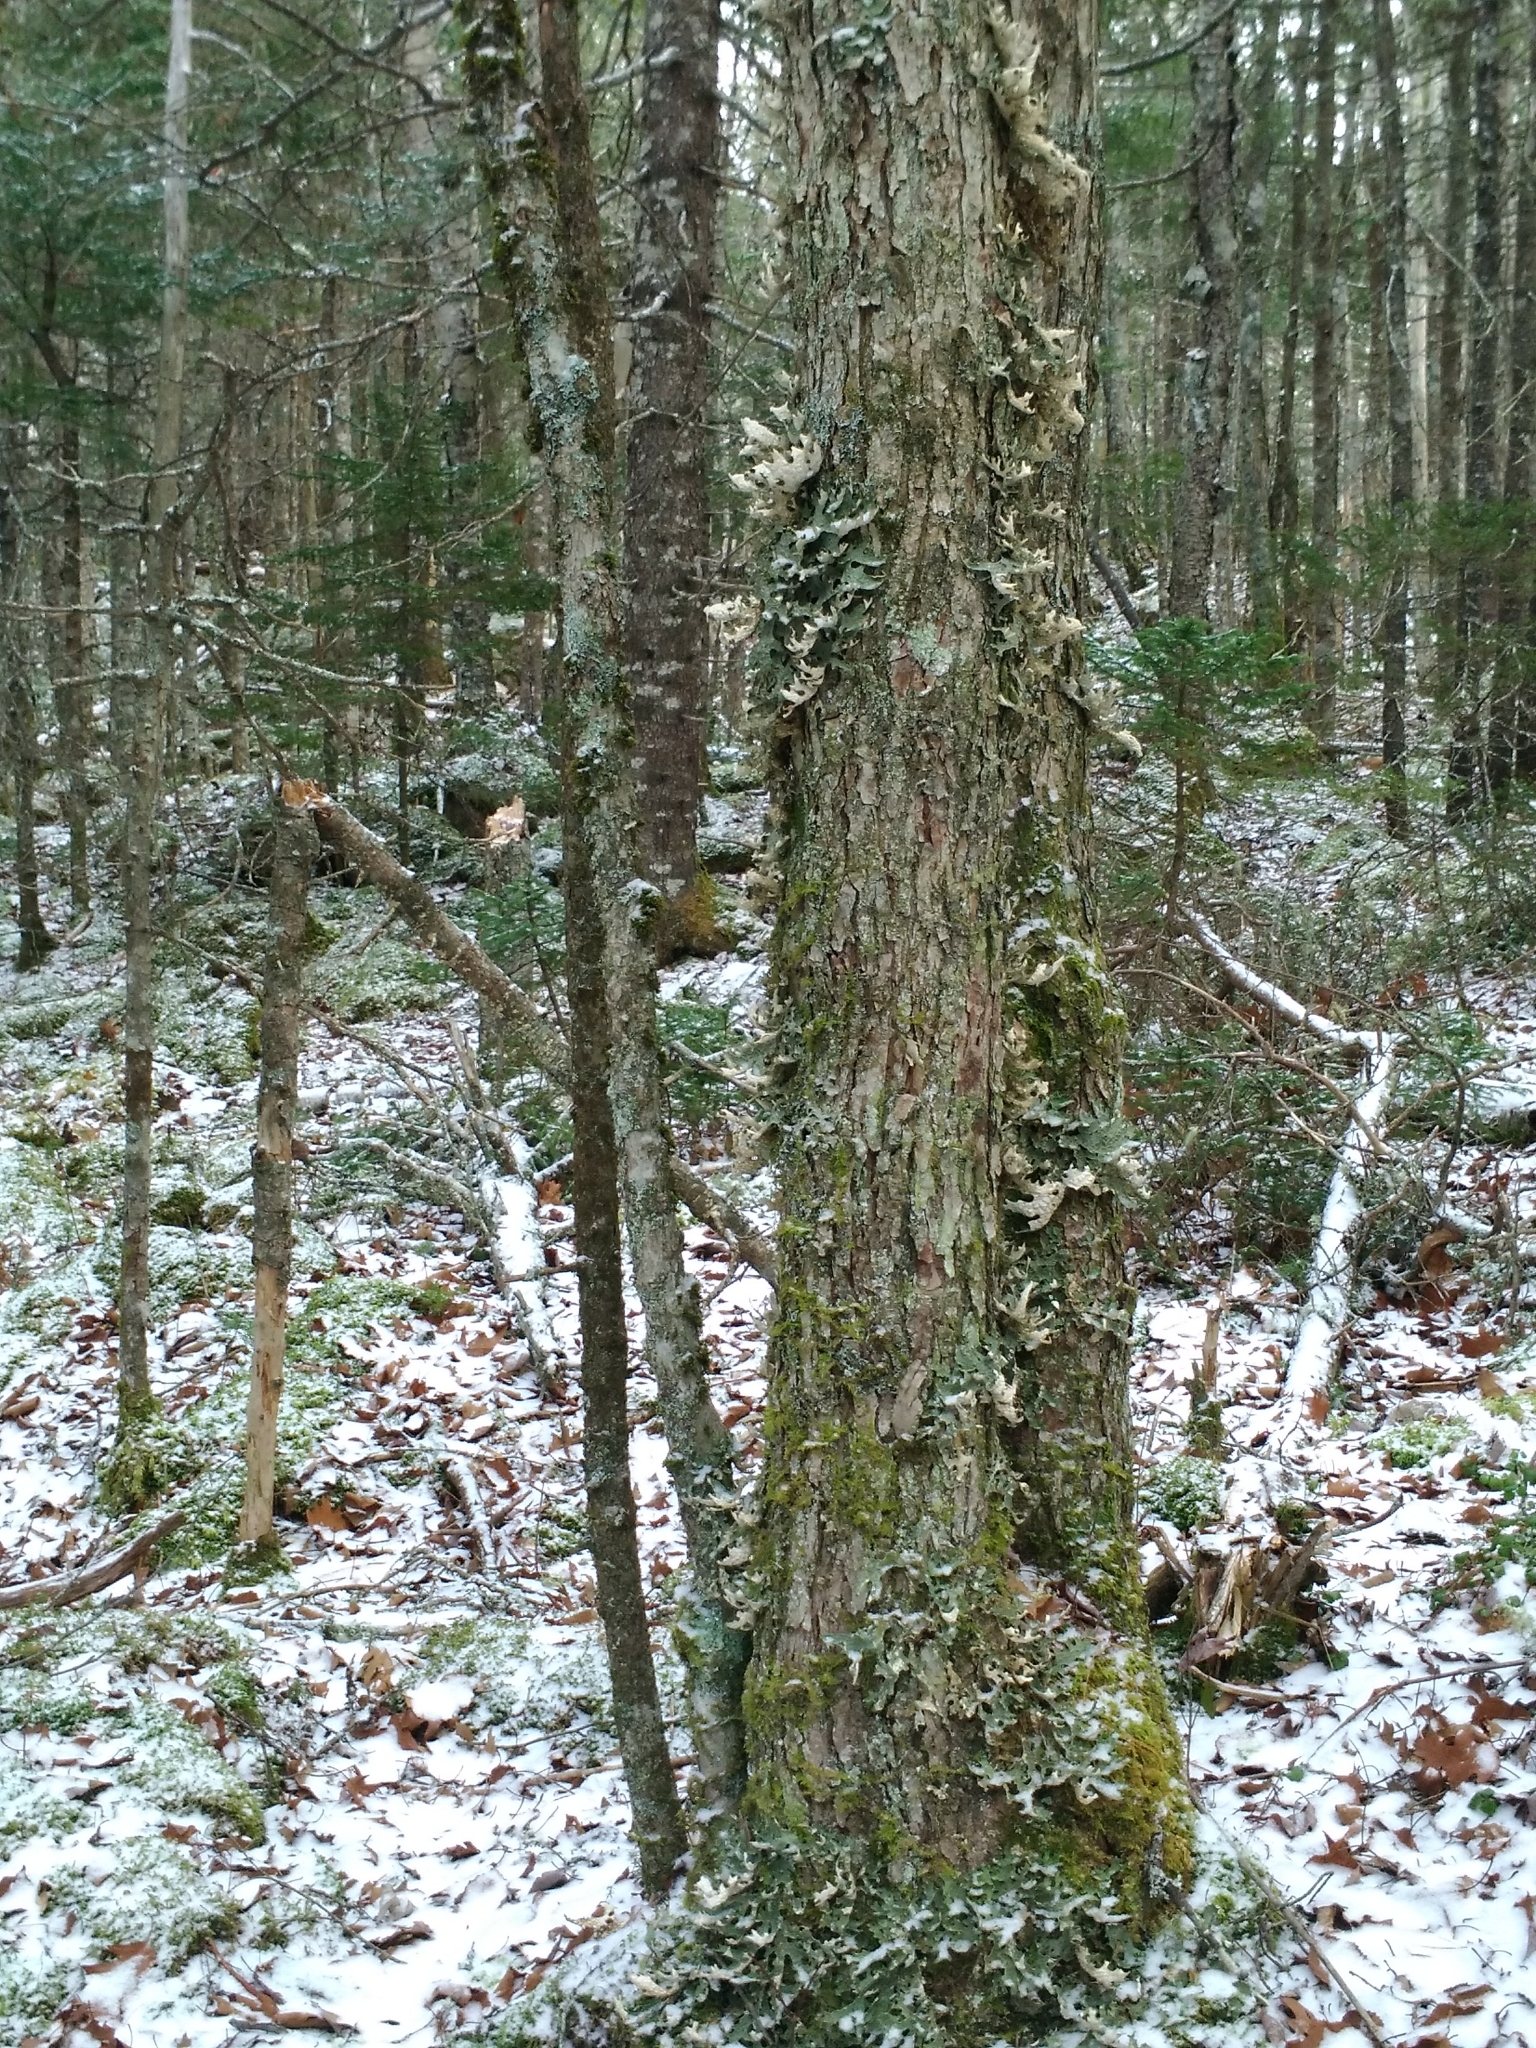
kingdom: Fungi
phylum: Ascomycota
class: Lecanoromycetes
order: Peltigerales
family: Lobariaceae
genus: Lobaria
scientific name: Lobaria pulmonaria
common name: Lungwort
